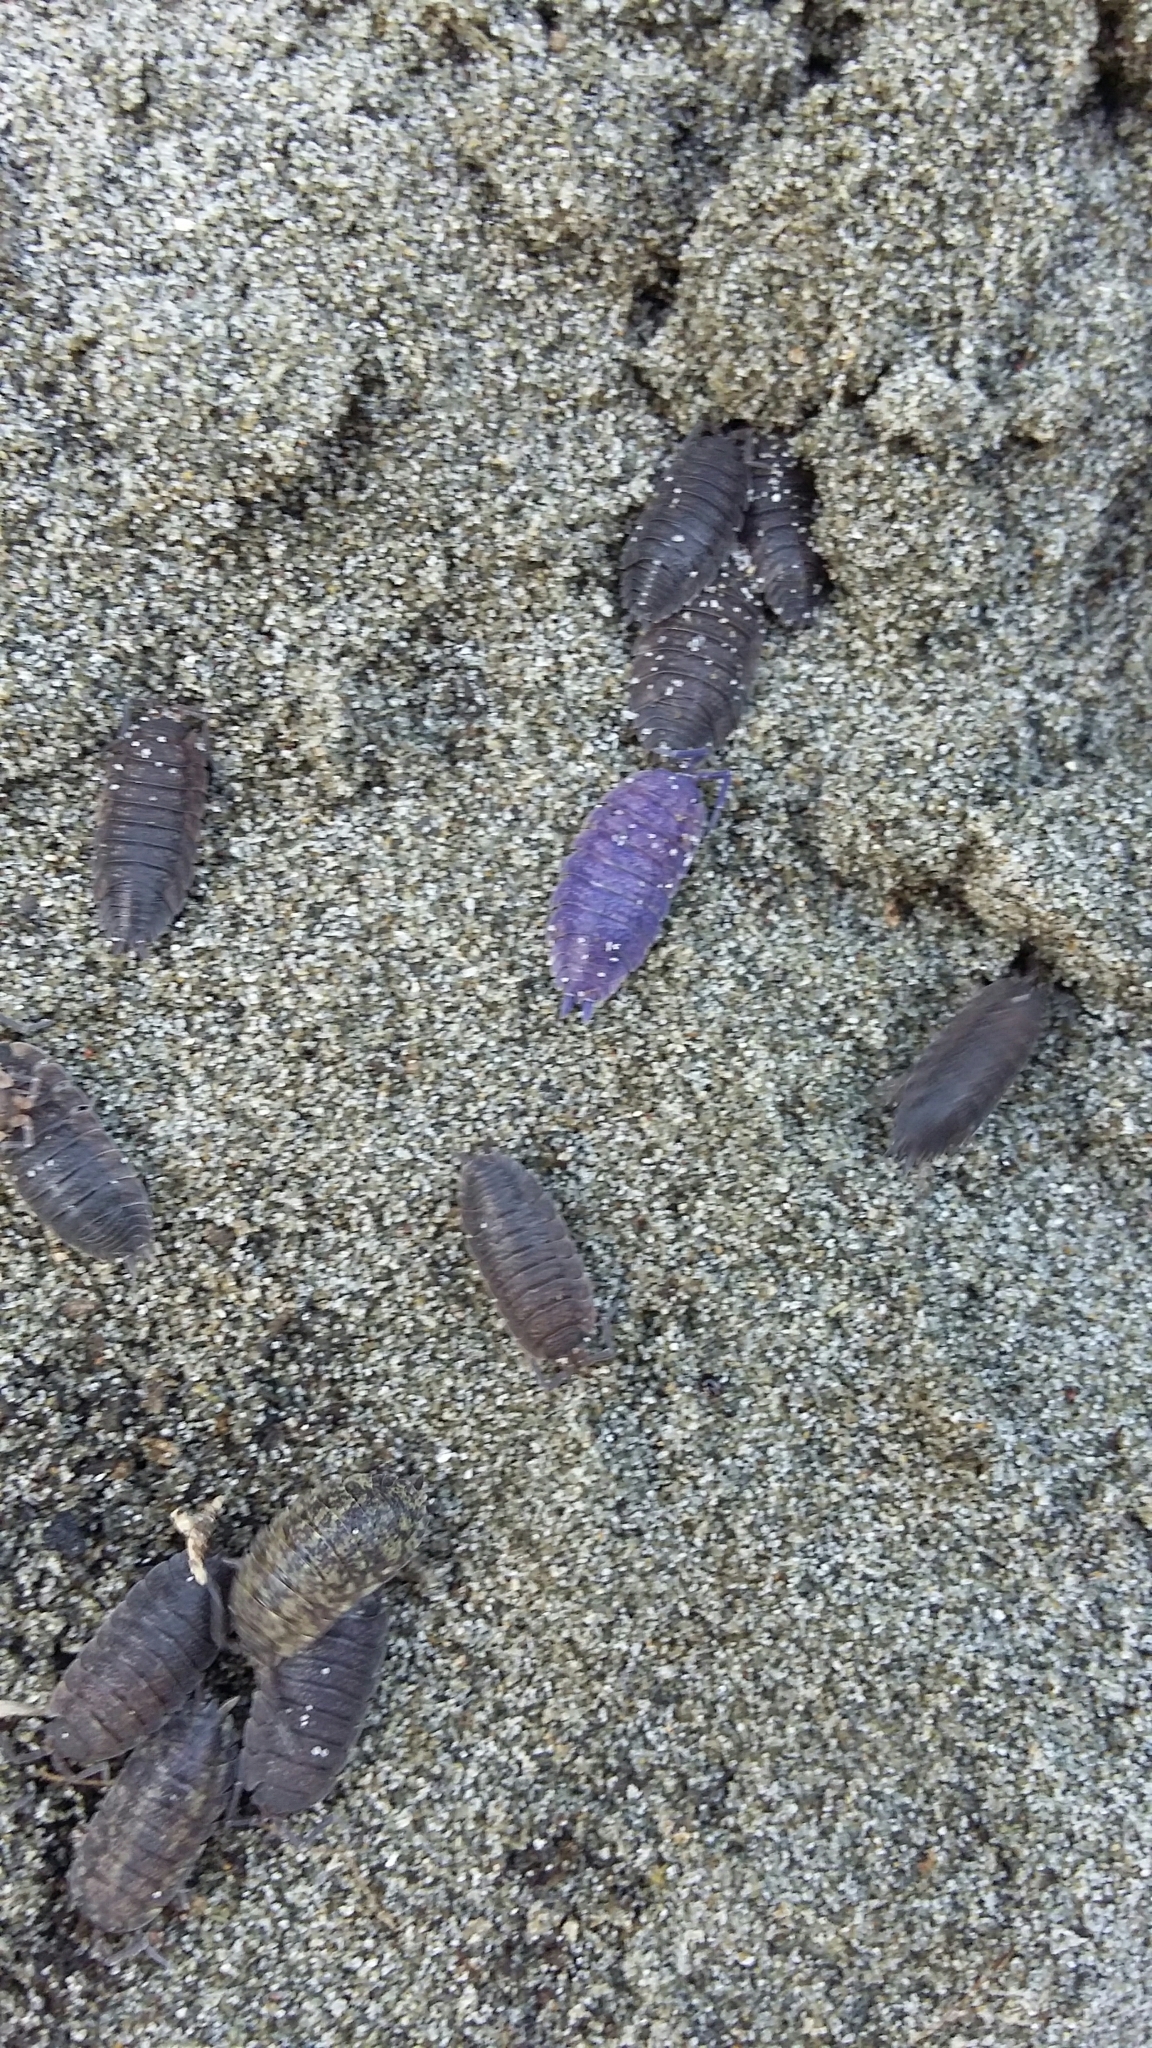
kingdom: Animalia
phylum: Arthropoda
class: Malacostraca
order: Isopoda
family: Porcellionidae
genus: Porcellio
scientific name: Porcellio scaber
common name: Common rough woodlouse
